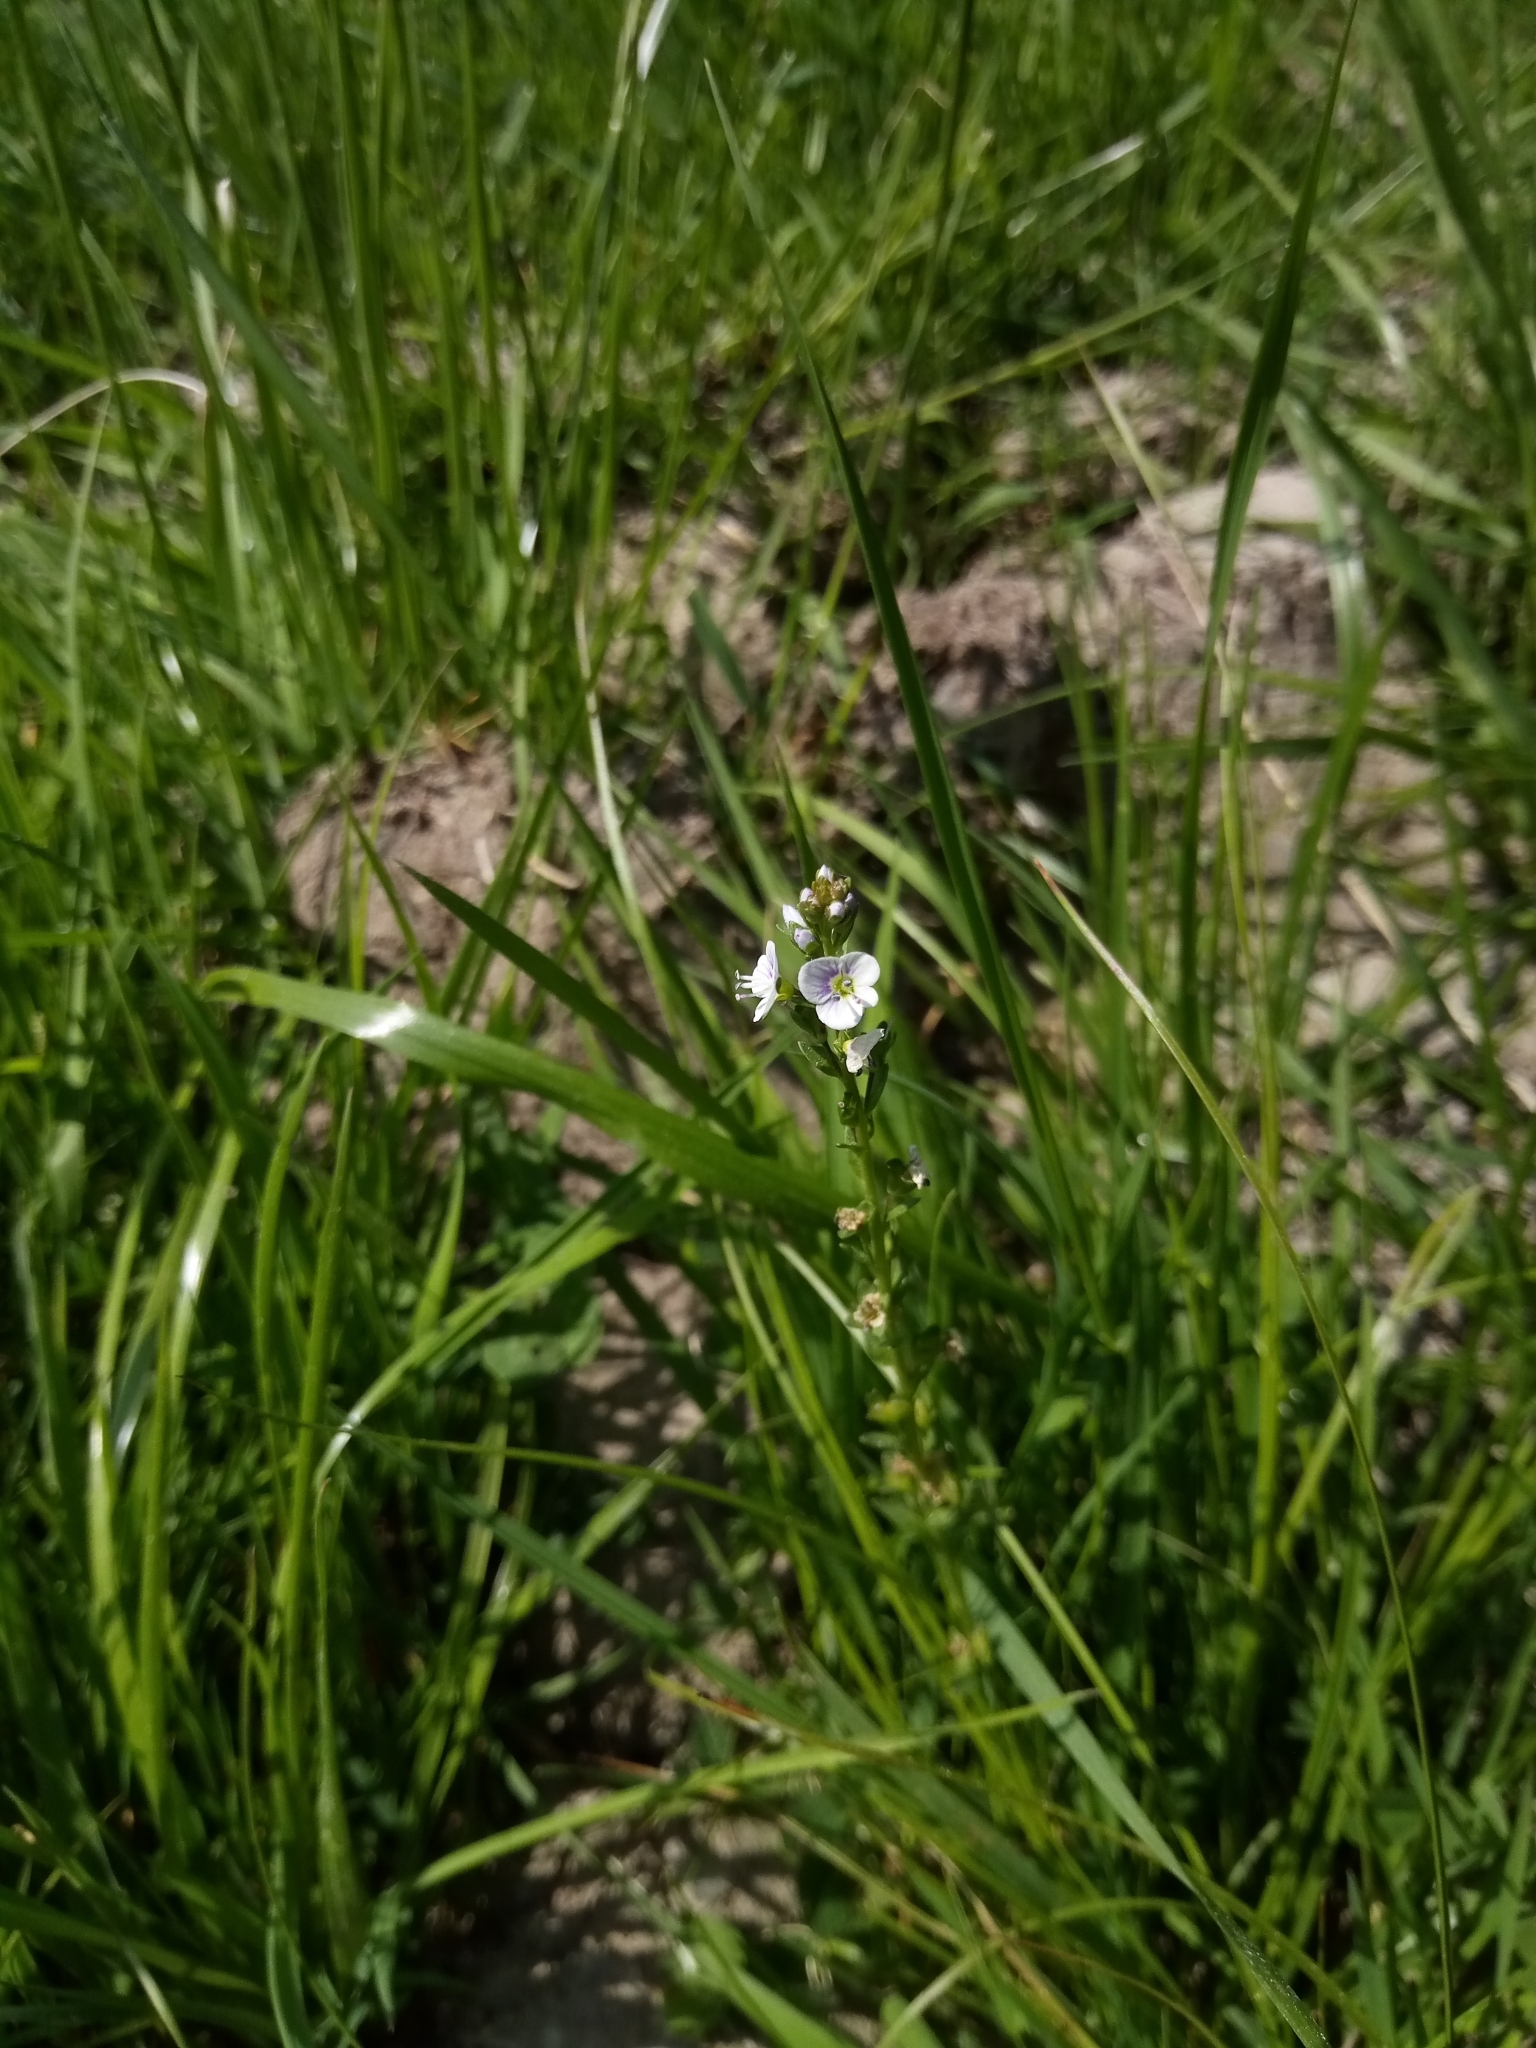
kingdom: Plantae
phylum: Tracheophyta
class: Magnoliopsida
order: Lamiales
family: Plantaginaceae
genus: Veronica
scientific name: Veronica serpyllifolia
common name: Thyme-leaved speedwell
